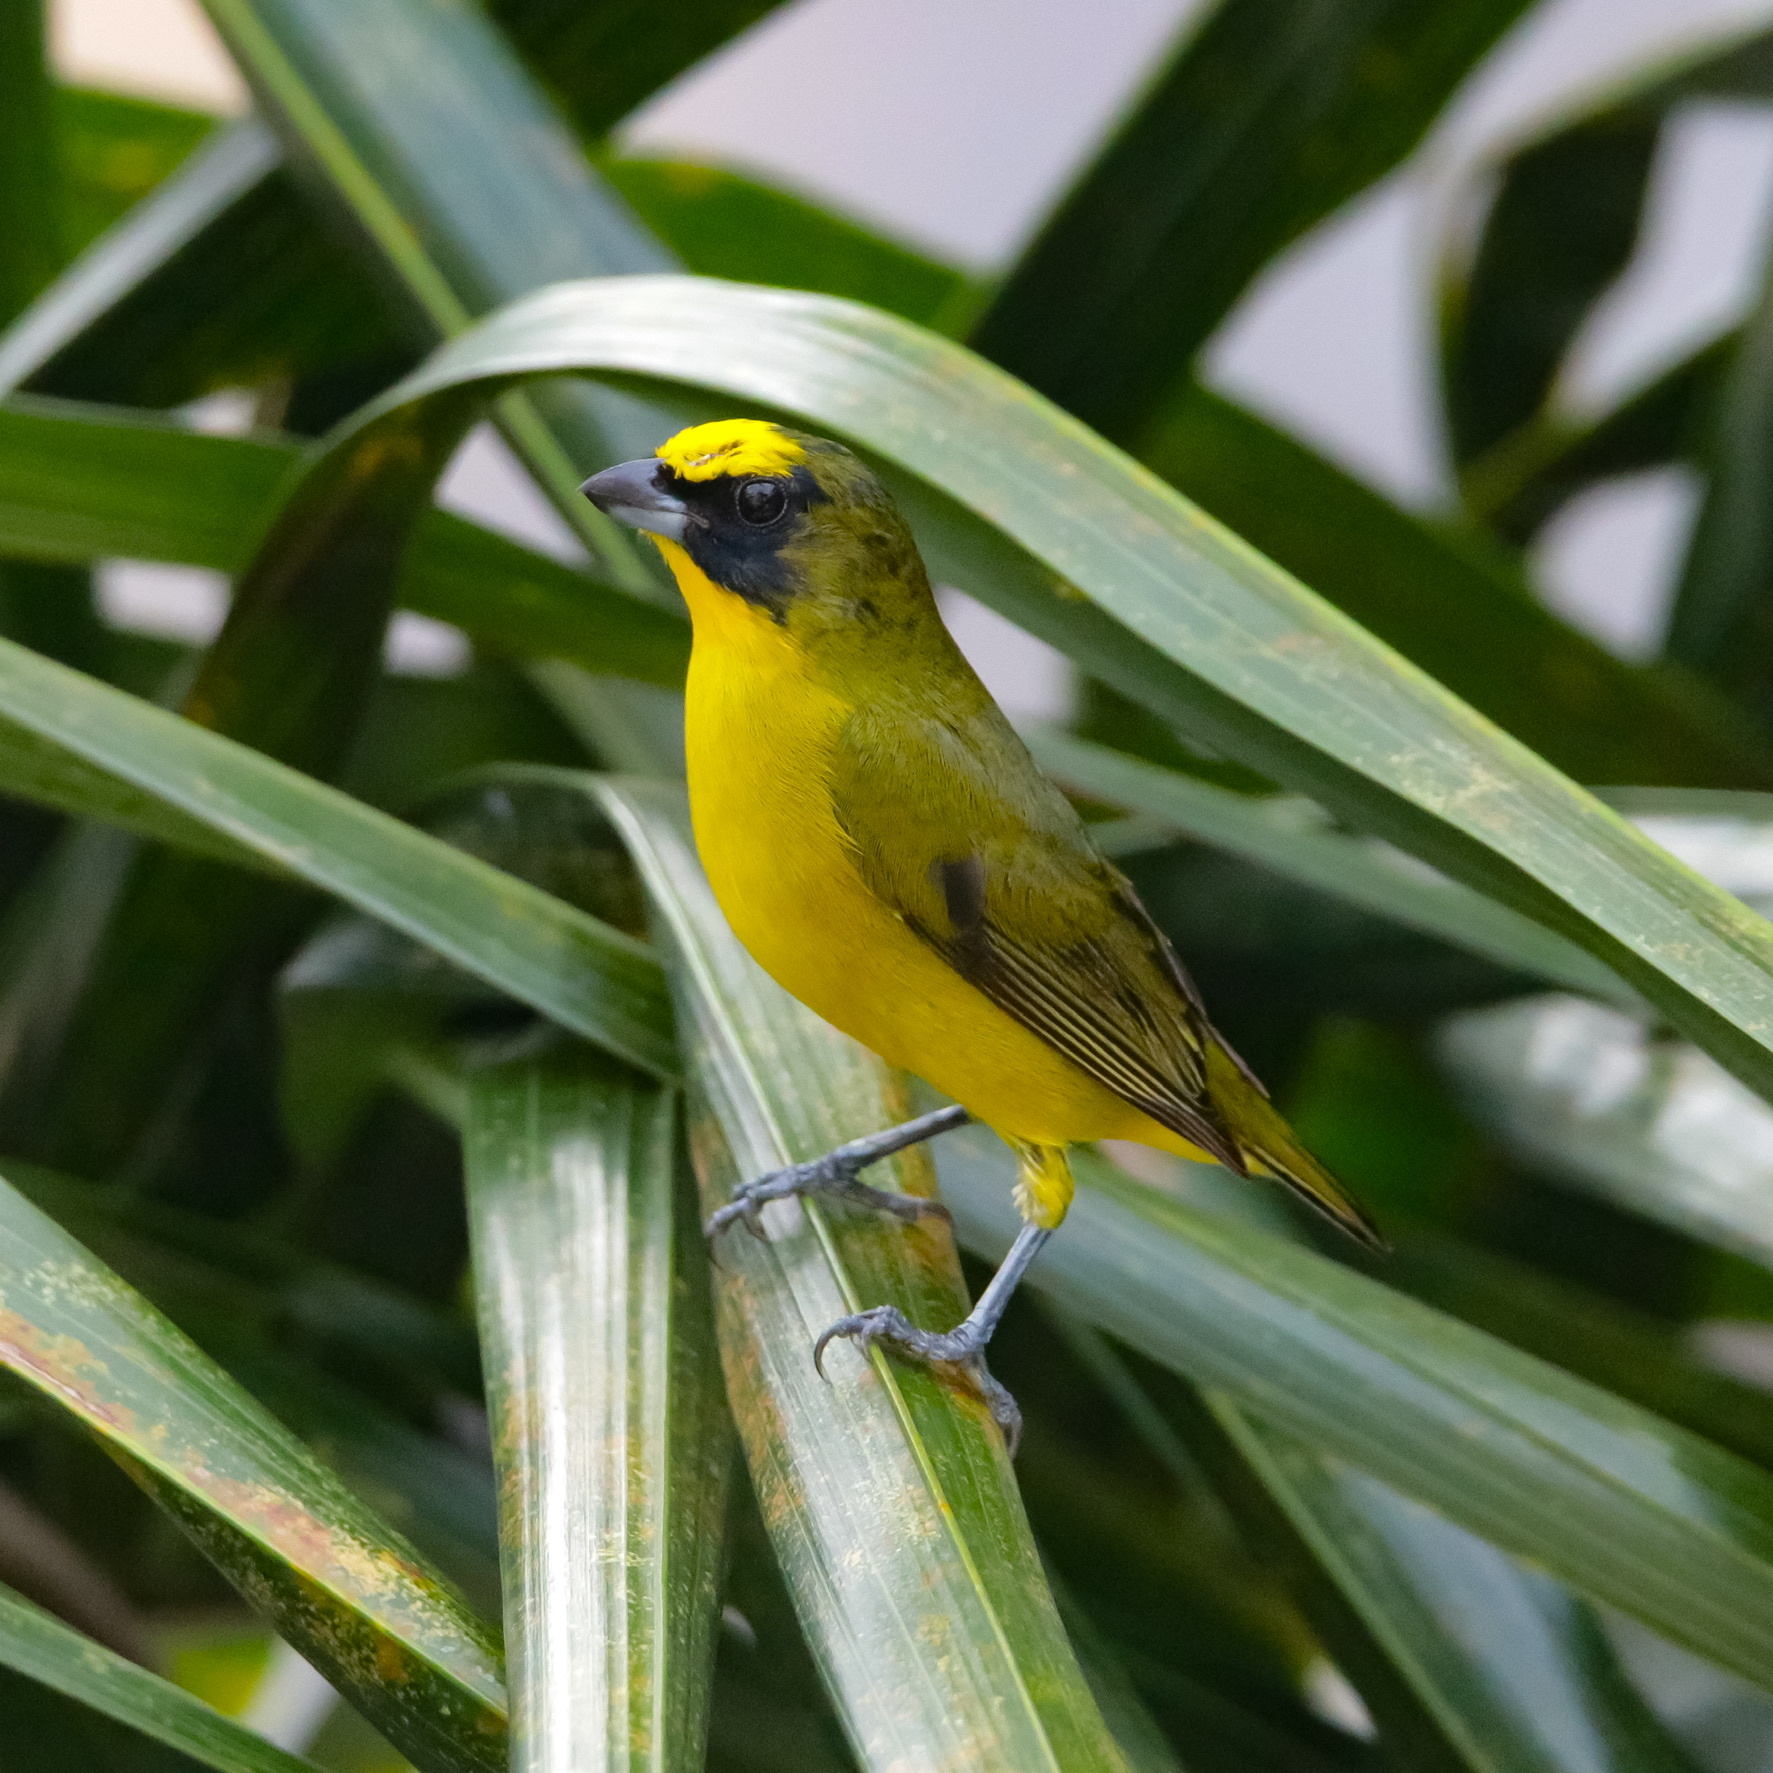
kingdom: Animalia
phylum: Chordata
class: Aves
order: Passeriformes
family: Fringillidae
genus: Euphonia
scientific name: Euphonia laniirostris
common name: Thick-billed euphonia
